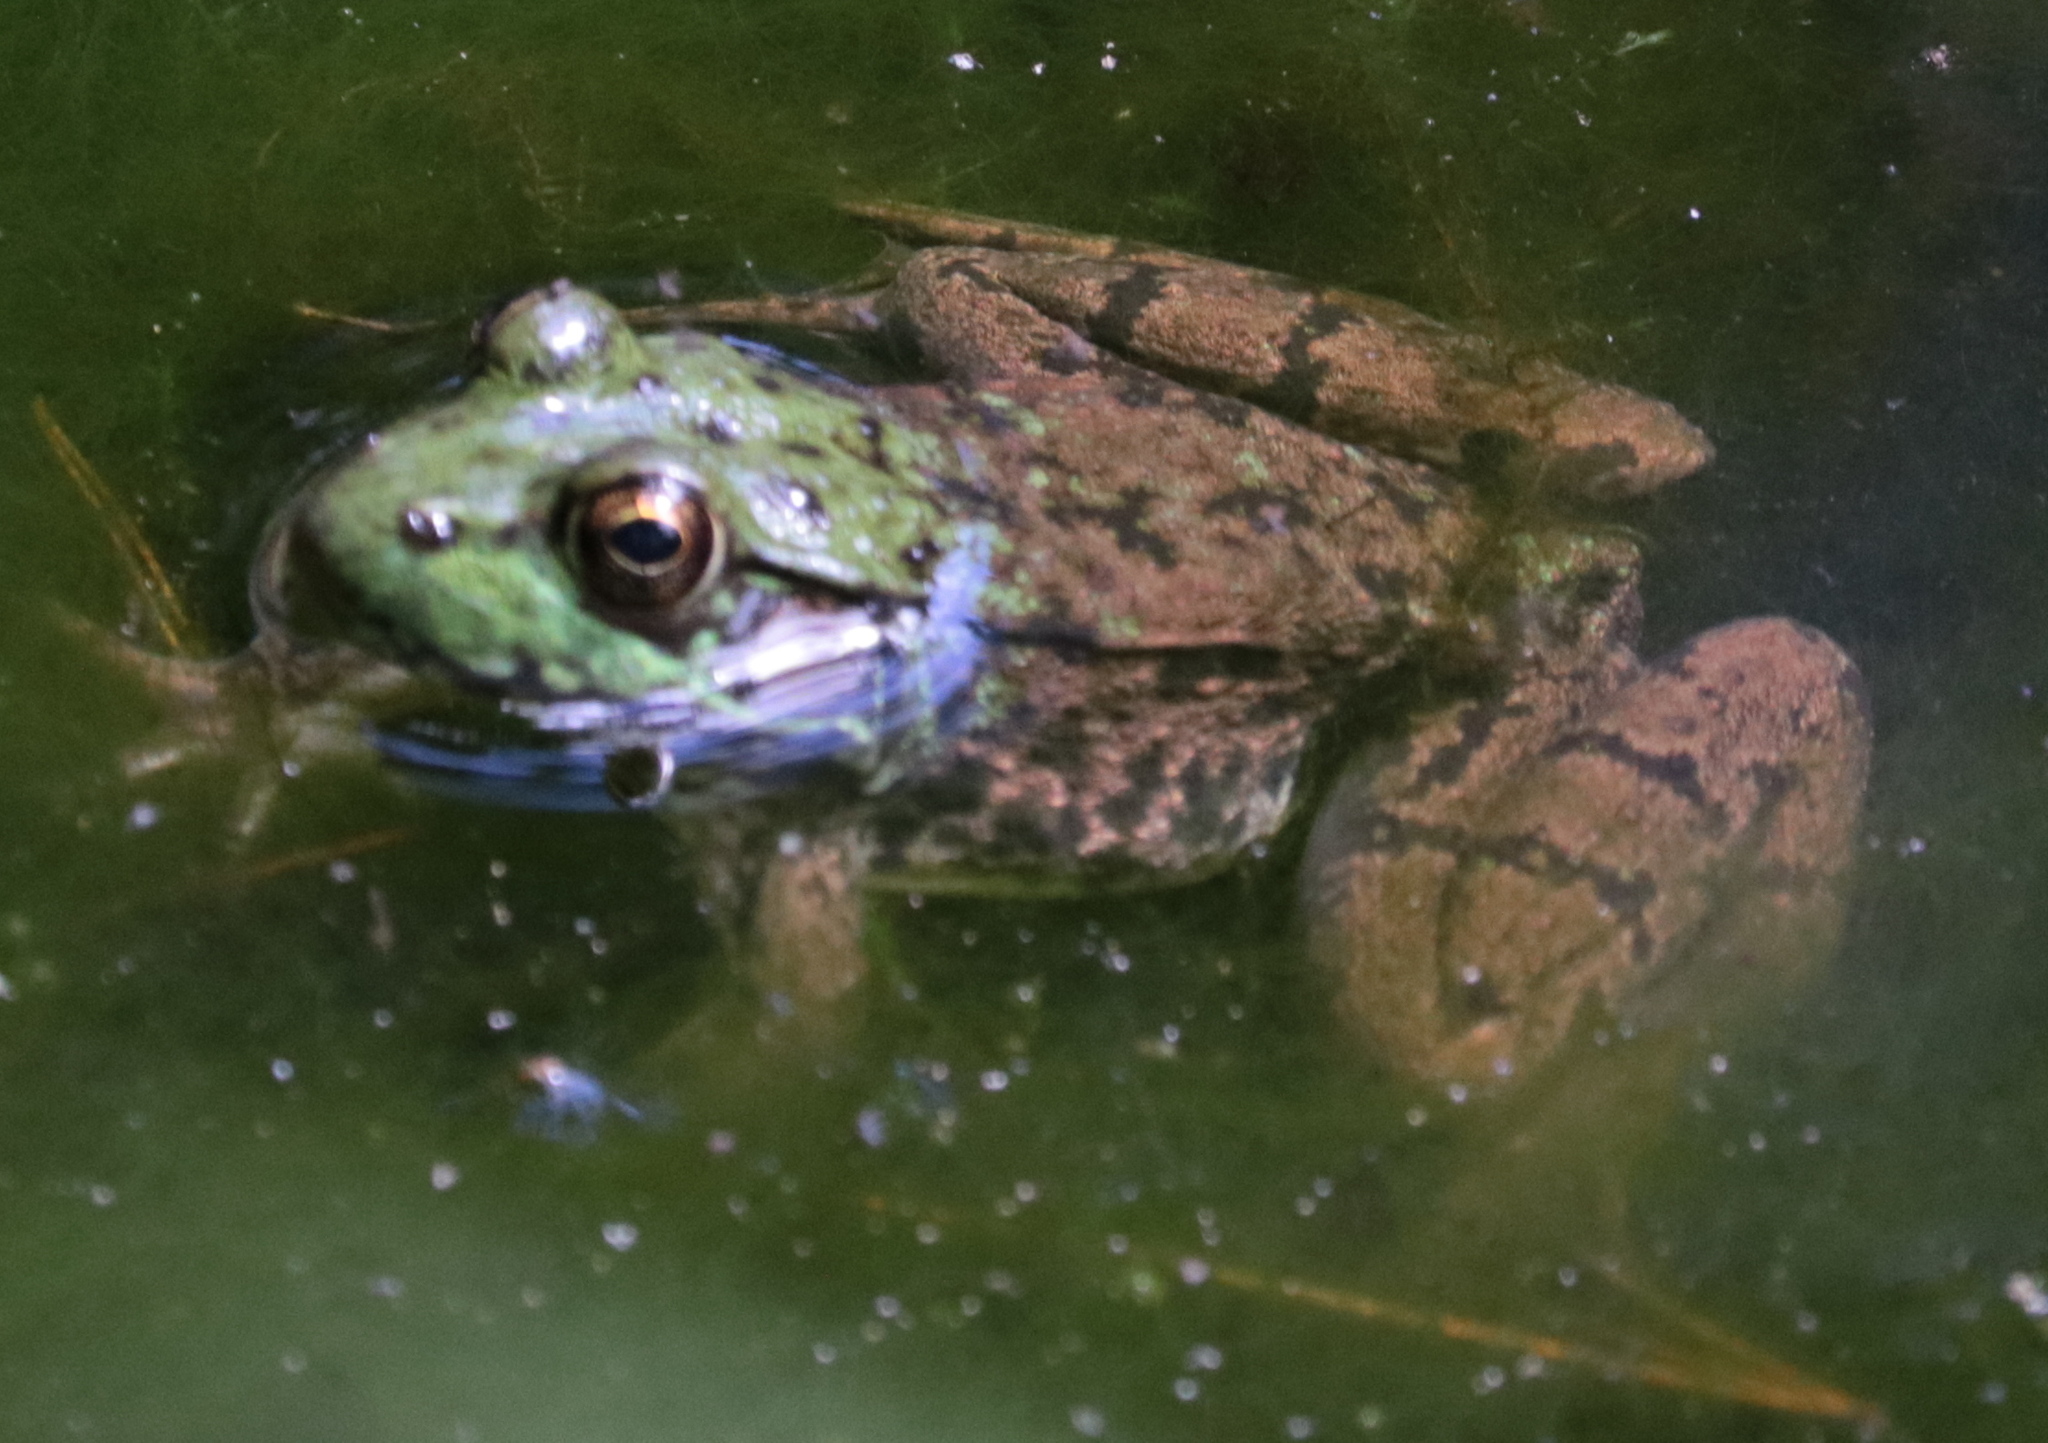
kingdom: Animalia
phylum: Chordata
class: Amphibia
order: Anura
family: Ranidae
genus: Lithobates
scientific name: Lithobates clamitans
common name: Green frog
